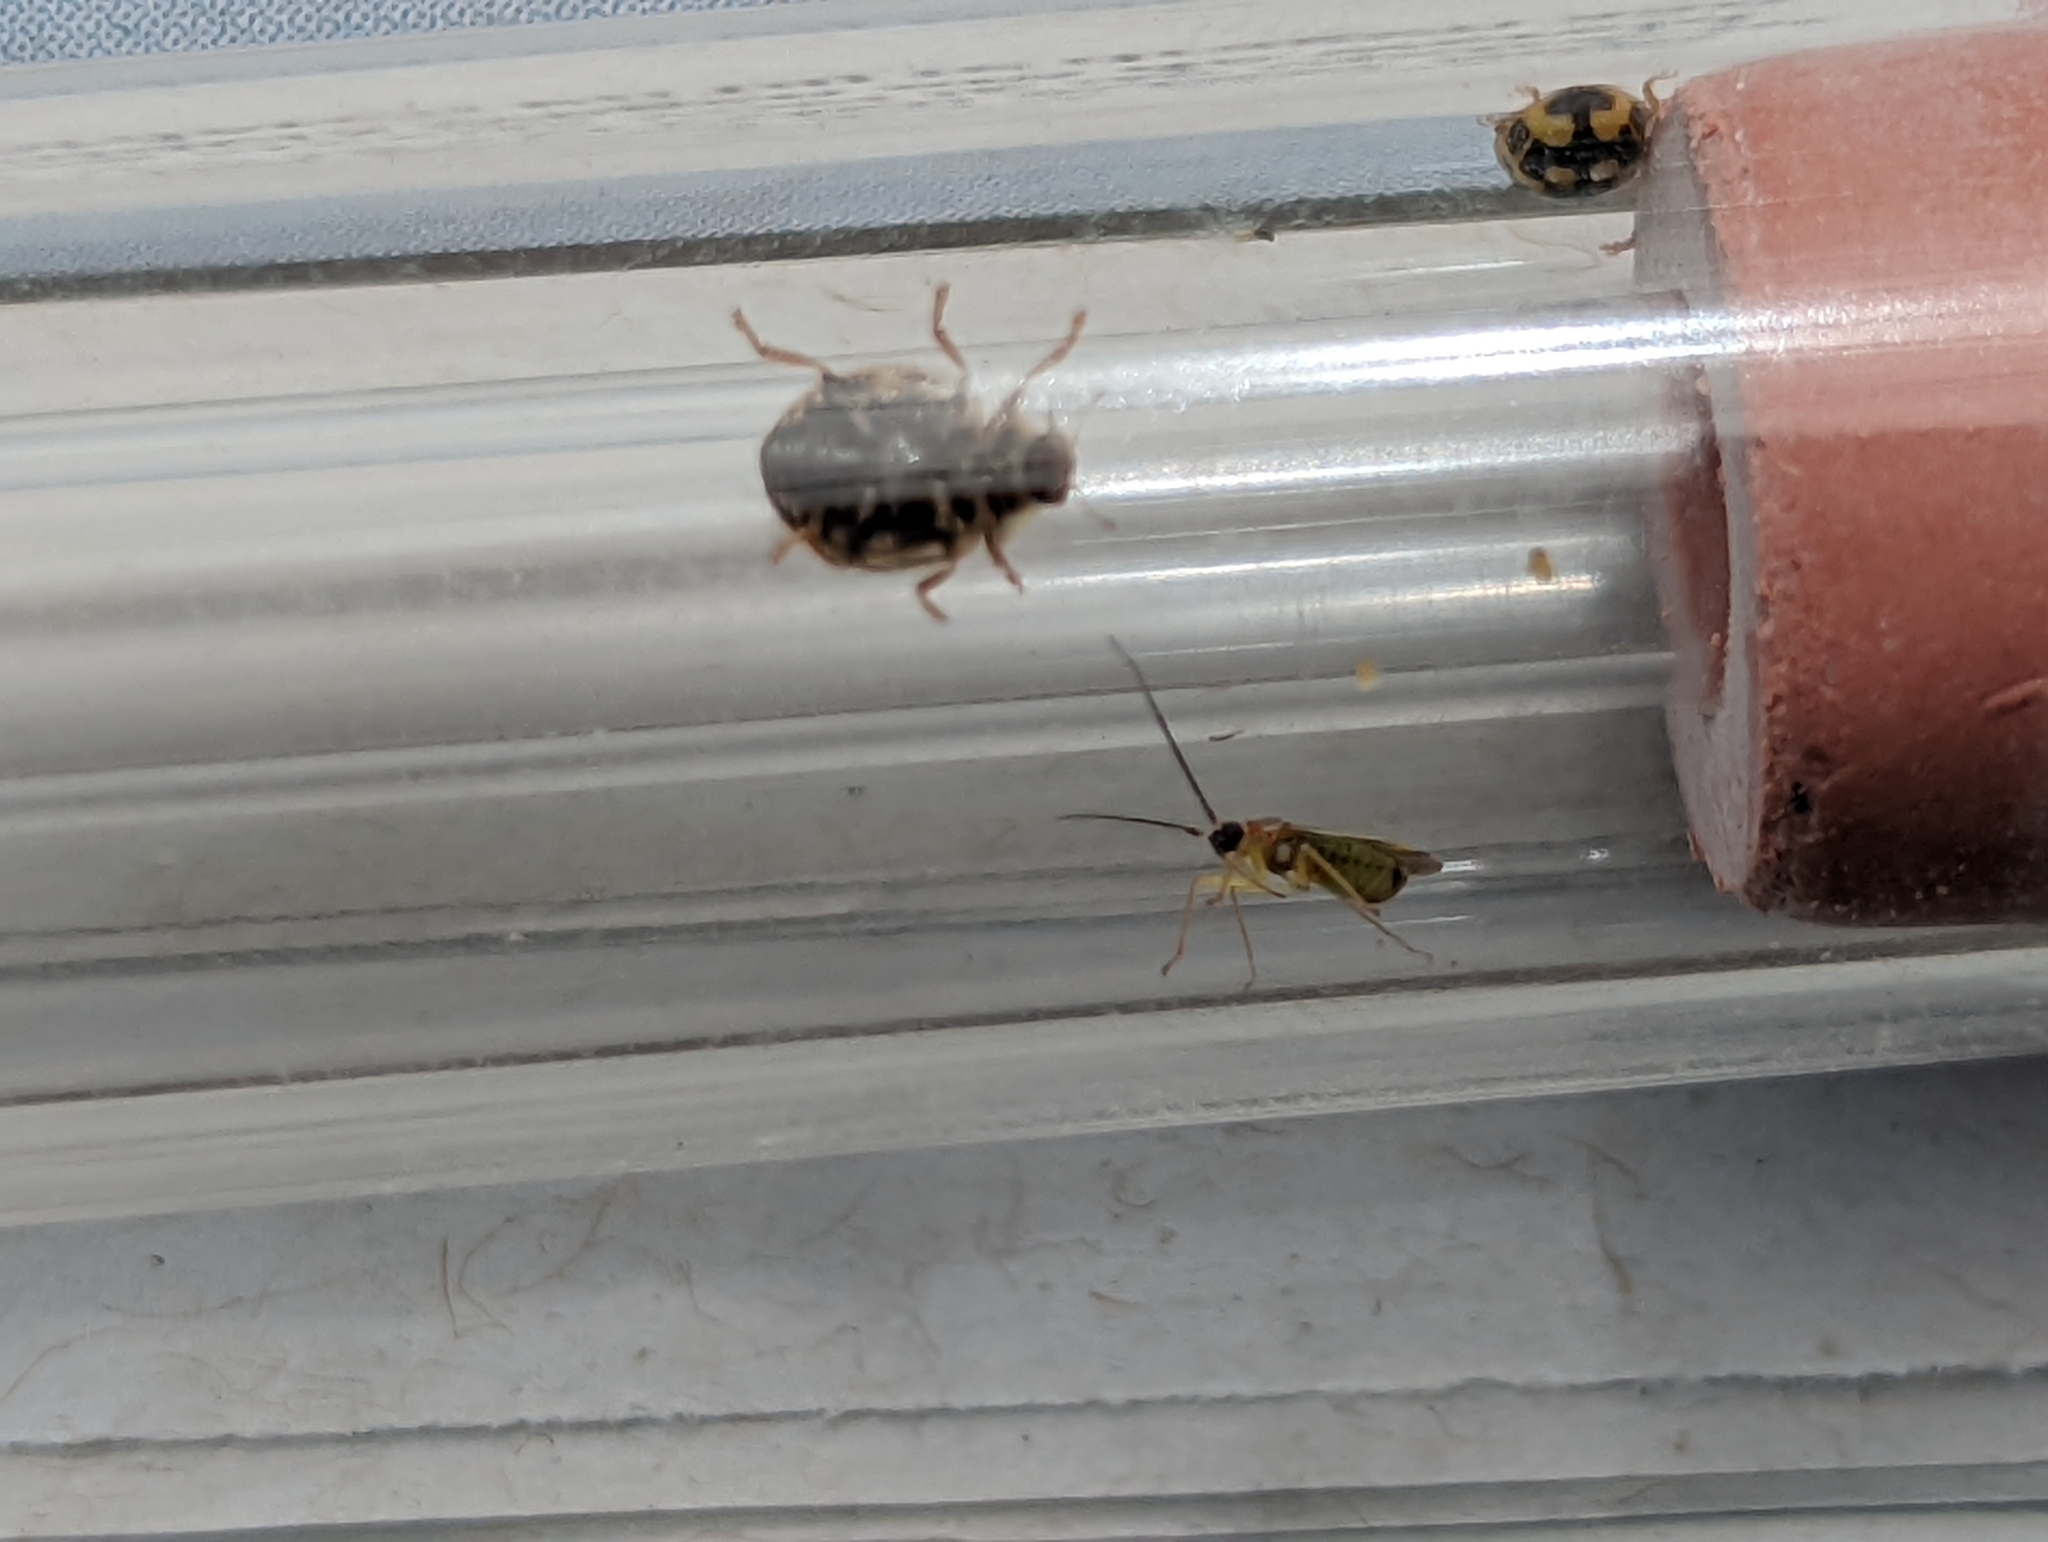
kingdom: Animalia
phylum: Arthropoda
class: Insecta
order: Hemiptera
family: Miridae
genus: Campyloneura
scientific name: Campyloneura virgula
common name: Predatory bug
